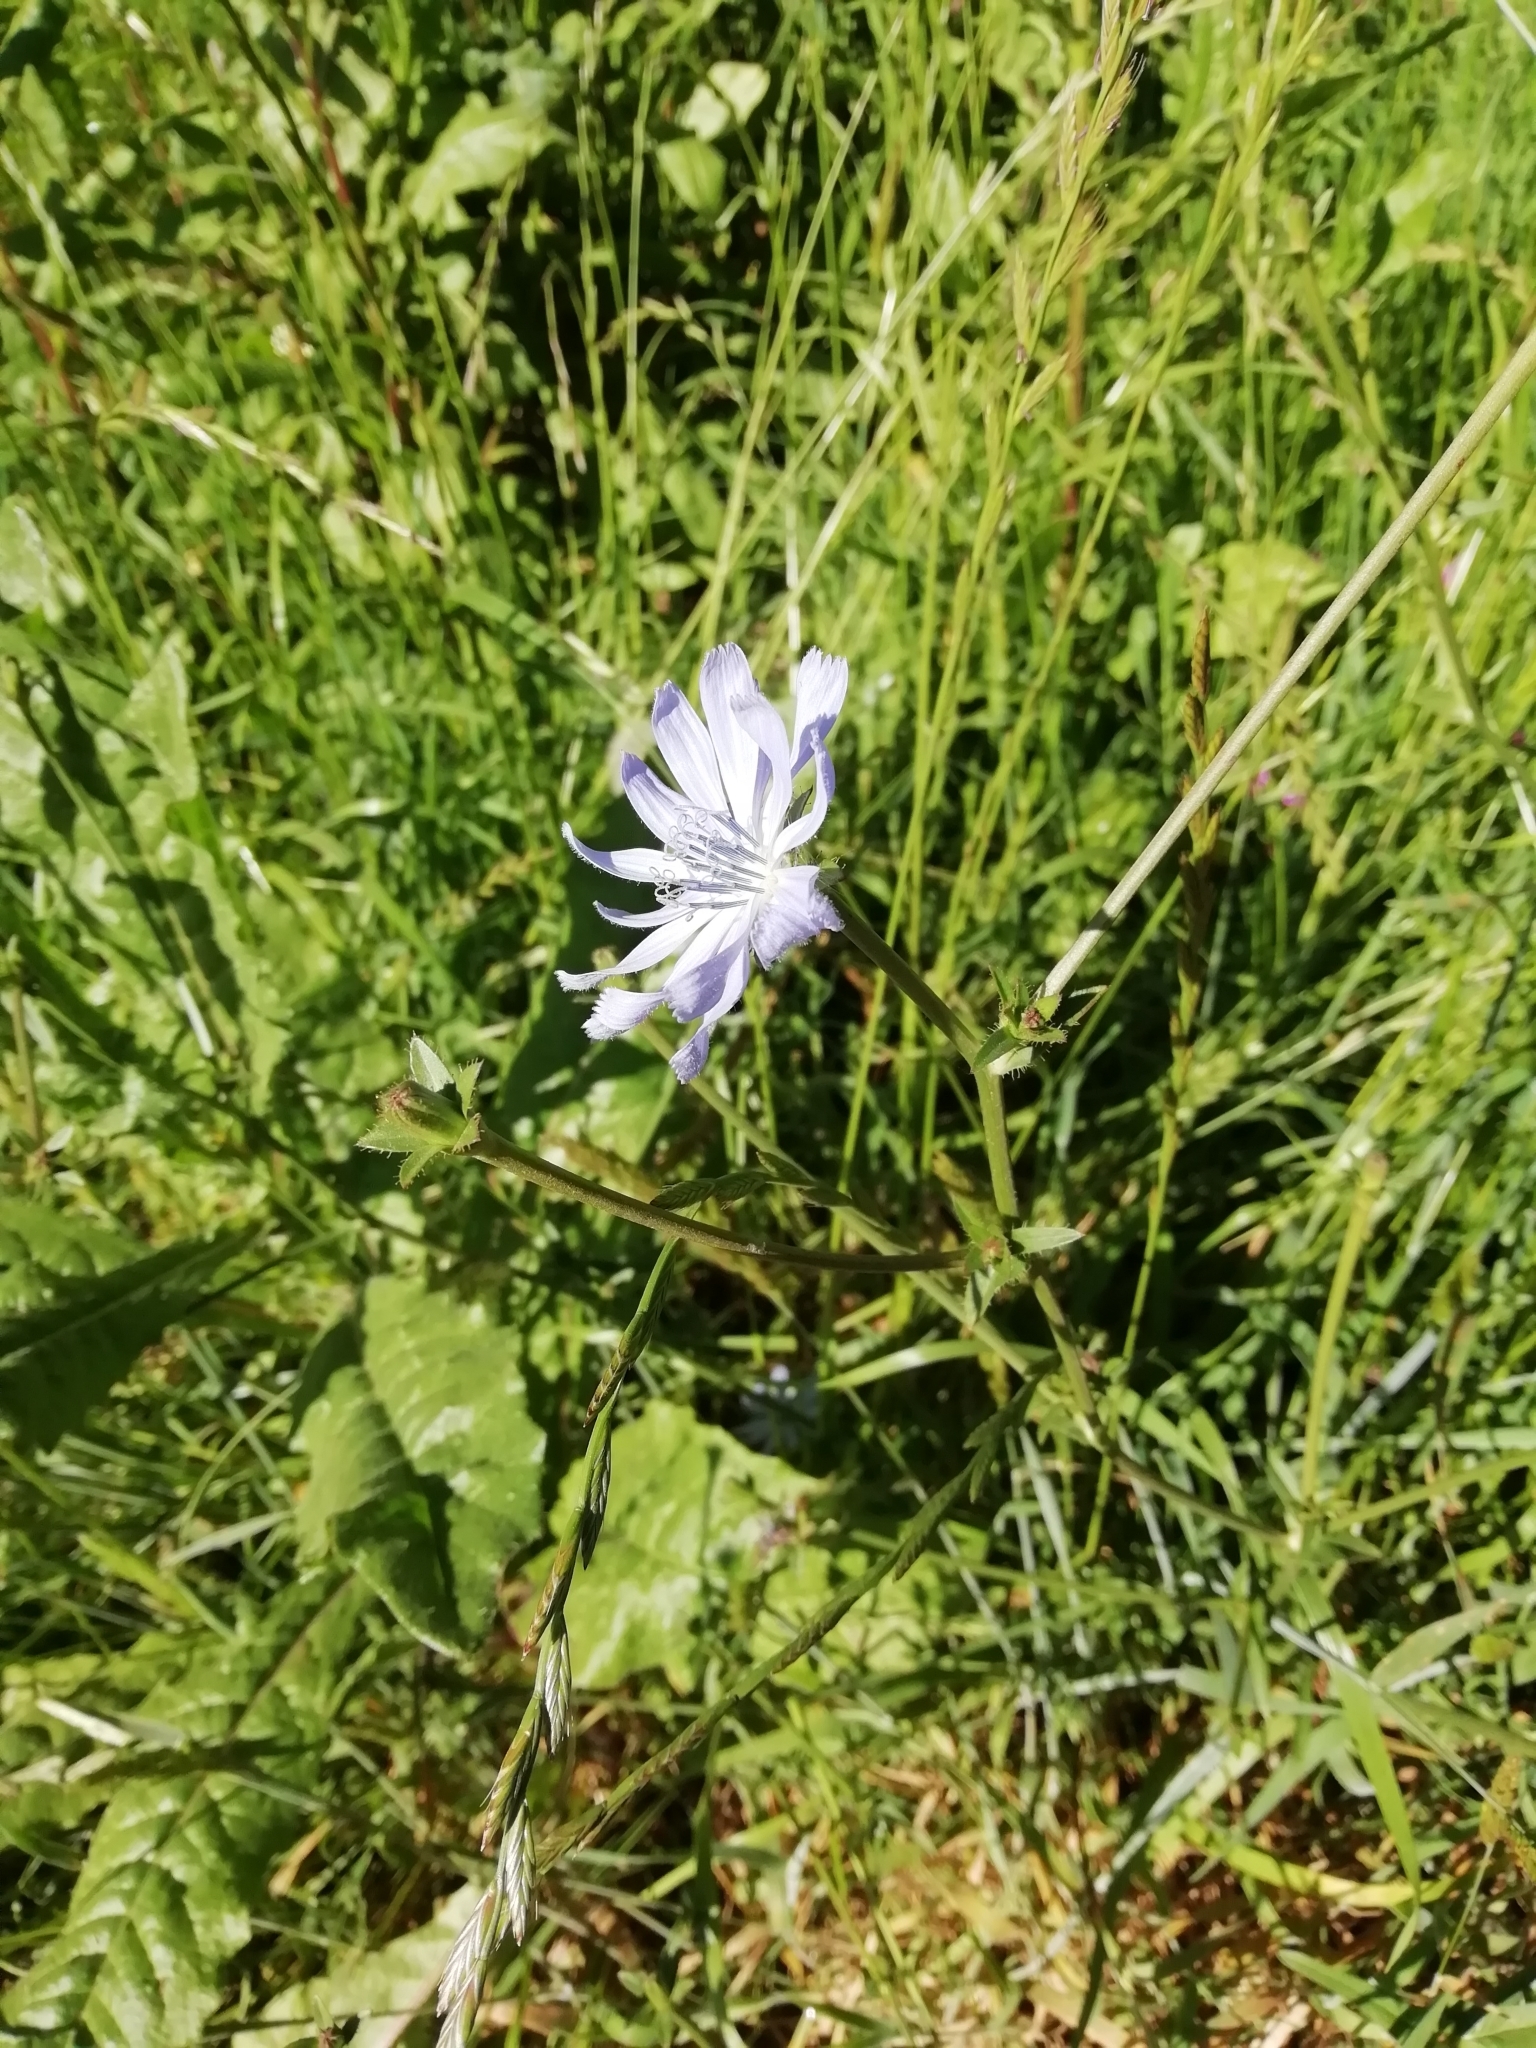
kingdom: Plantae
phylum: Tracheophyta
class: Magnoliopsida
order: Asterales
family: Asteraceae
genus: Cichorium
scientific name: Cichorium intybus
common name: Chicory
